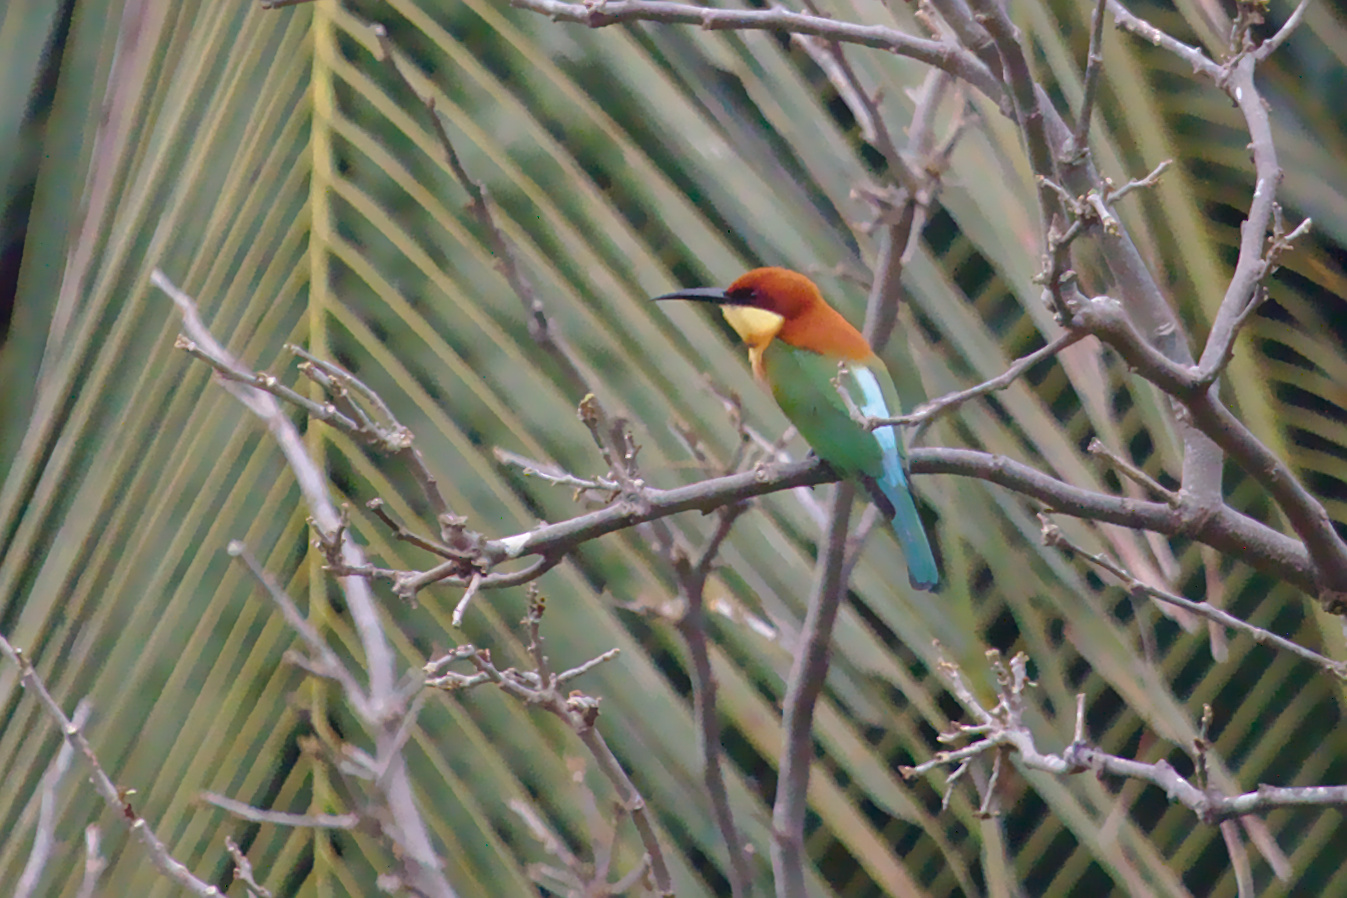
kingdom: Animalia
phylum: Chordata
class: Aves
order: Coraciiformes
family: Meropidae
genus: Merops
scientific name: Merops leschenaulti
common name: Chestnut-headed bee-eater
